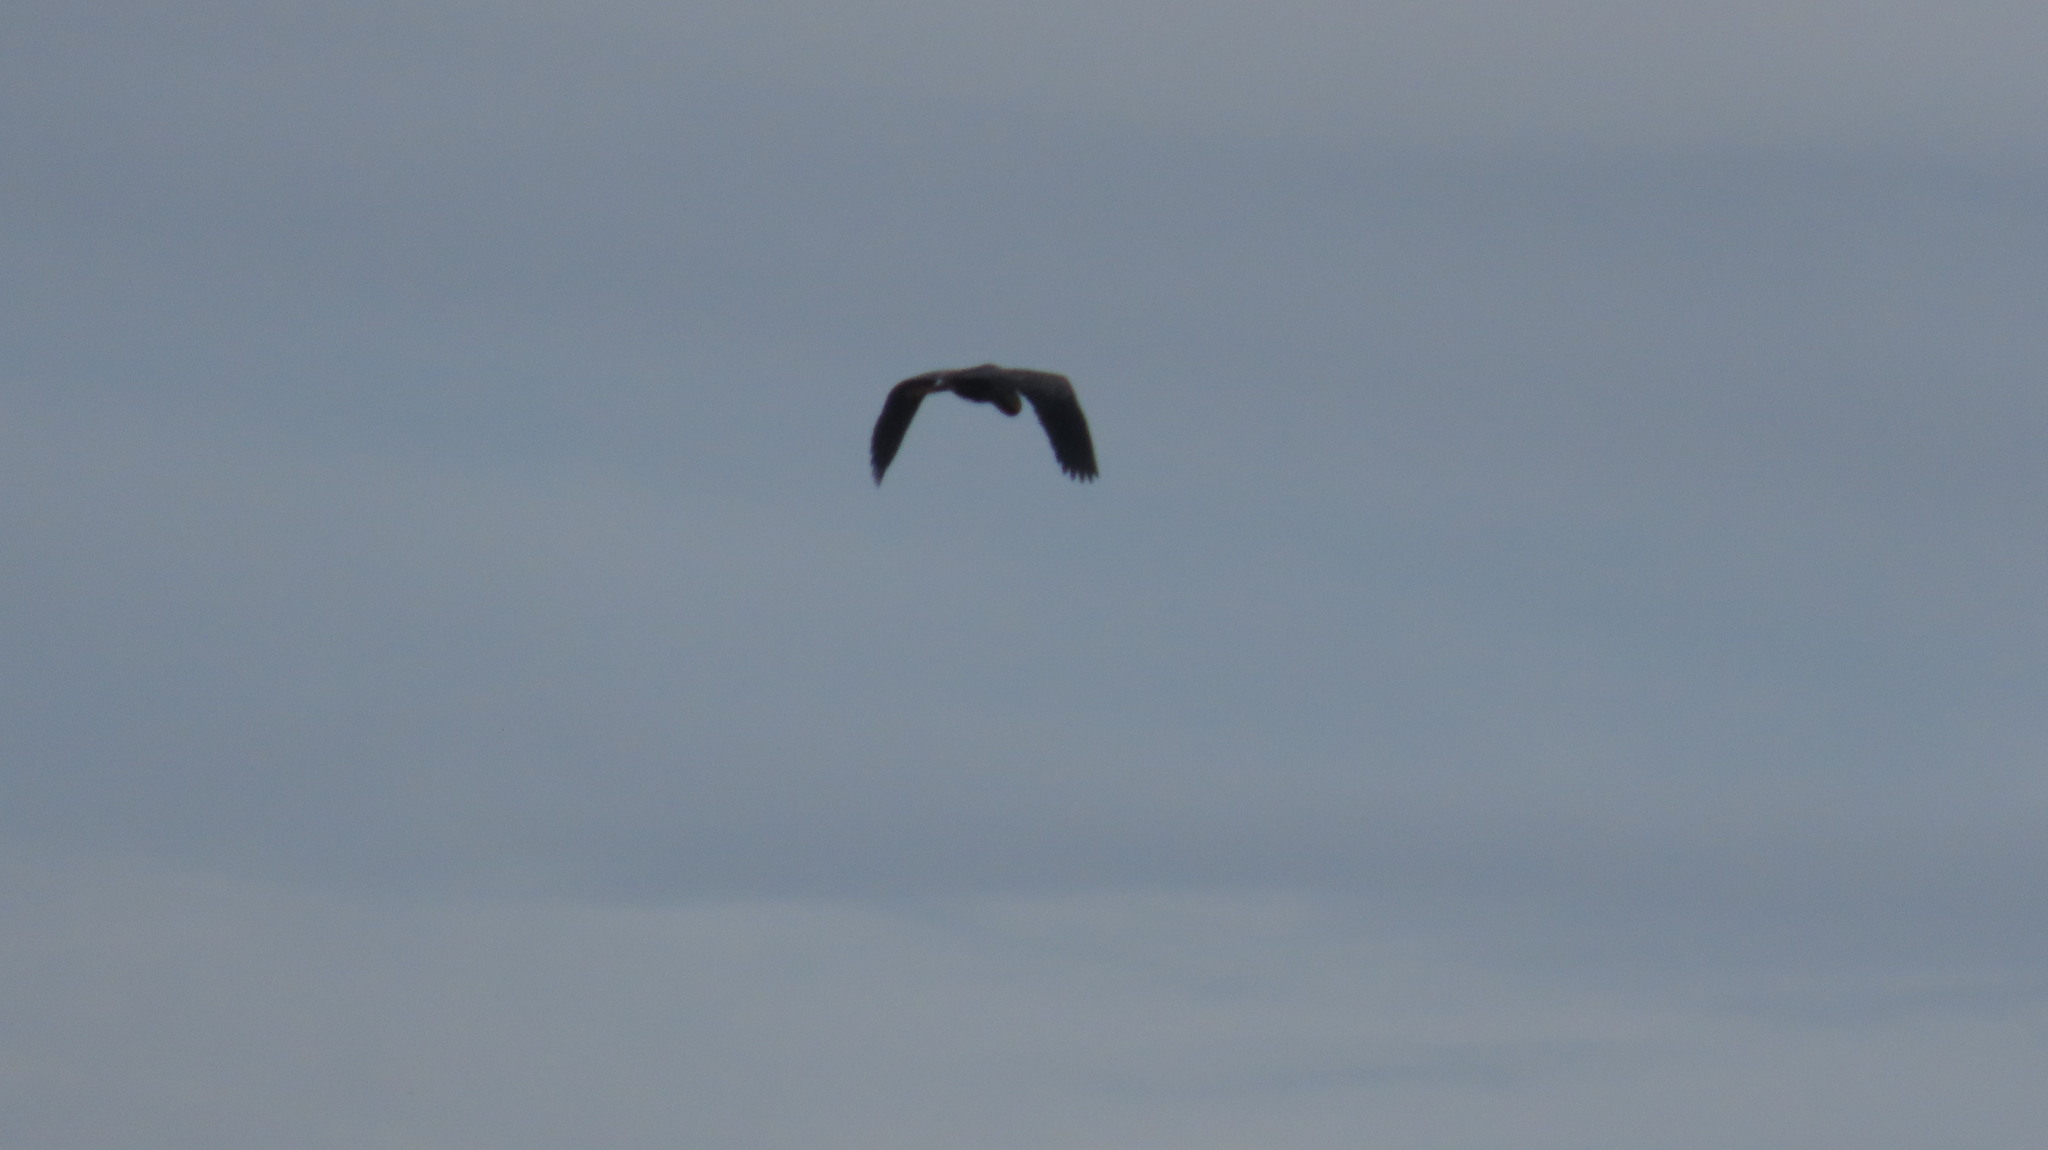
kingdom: Animalia
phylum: Chordata
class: Aves
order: Pelecaniformes
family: Ardeidae
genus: Ardea
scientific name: Ardea purpurea
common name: Purple heron
